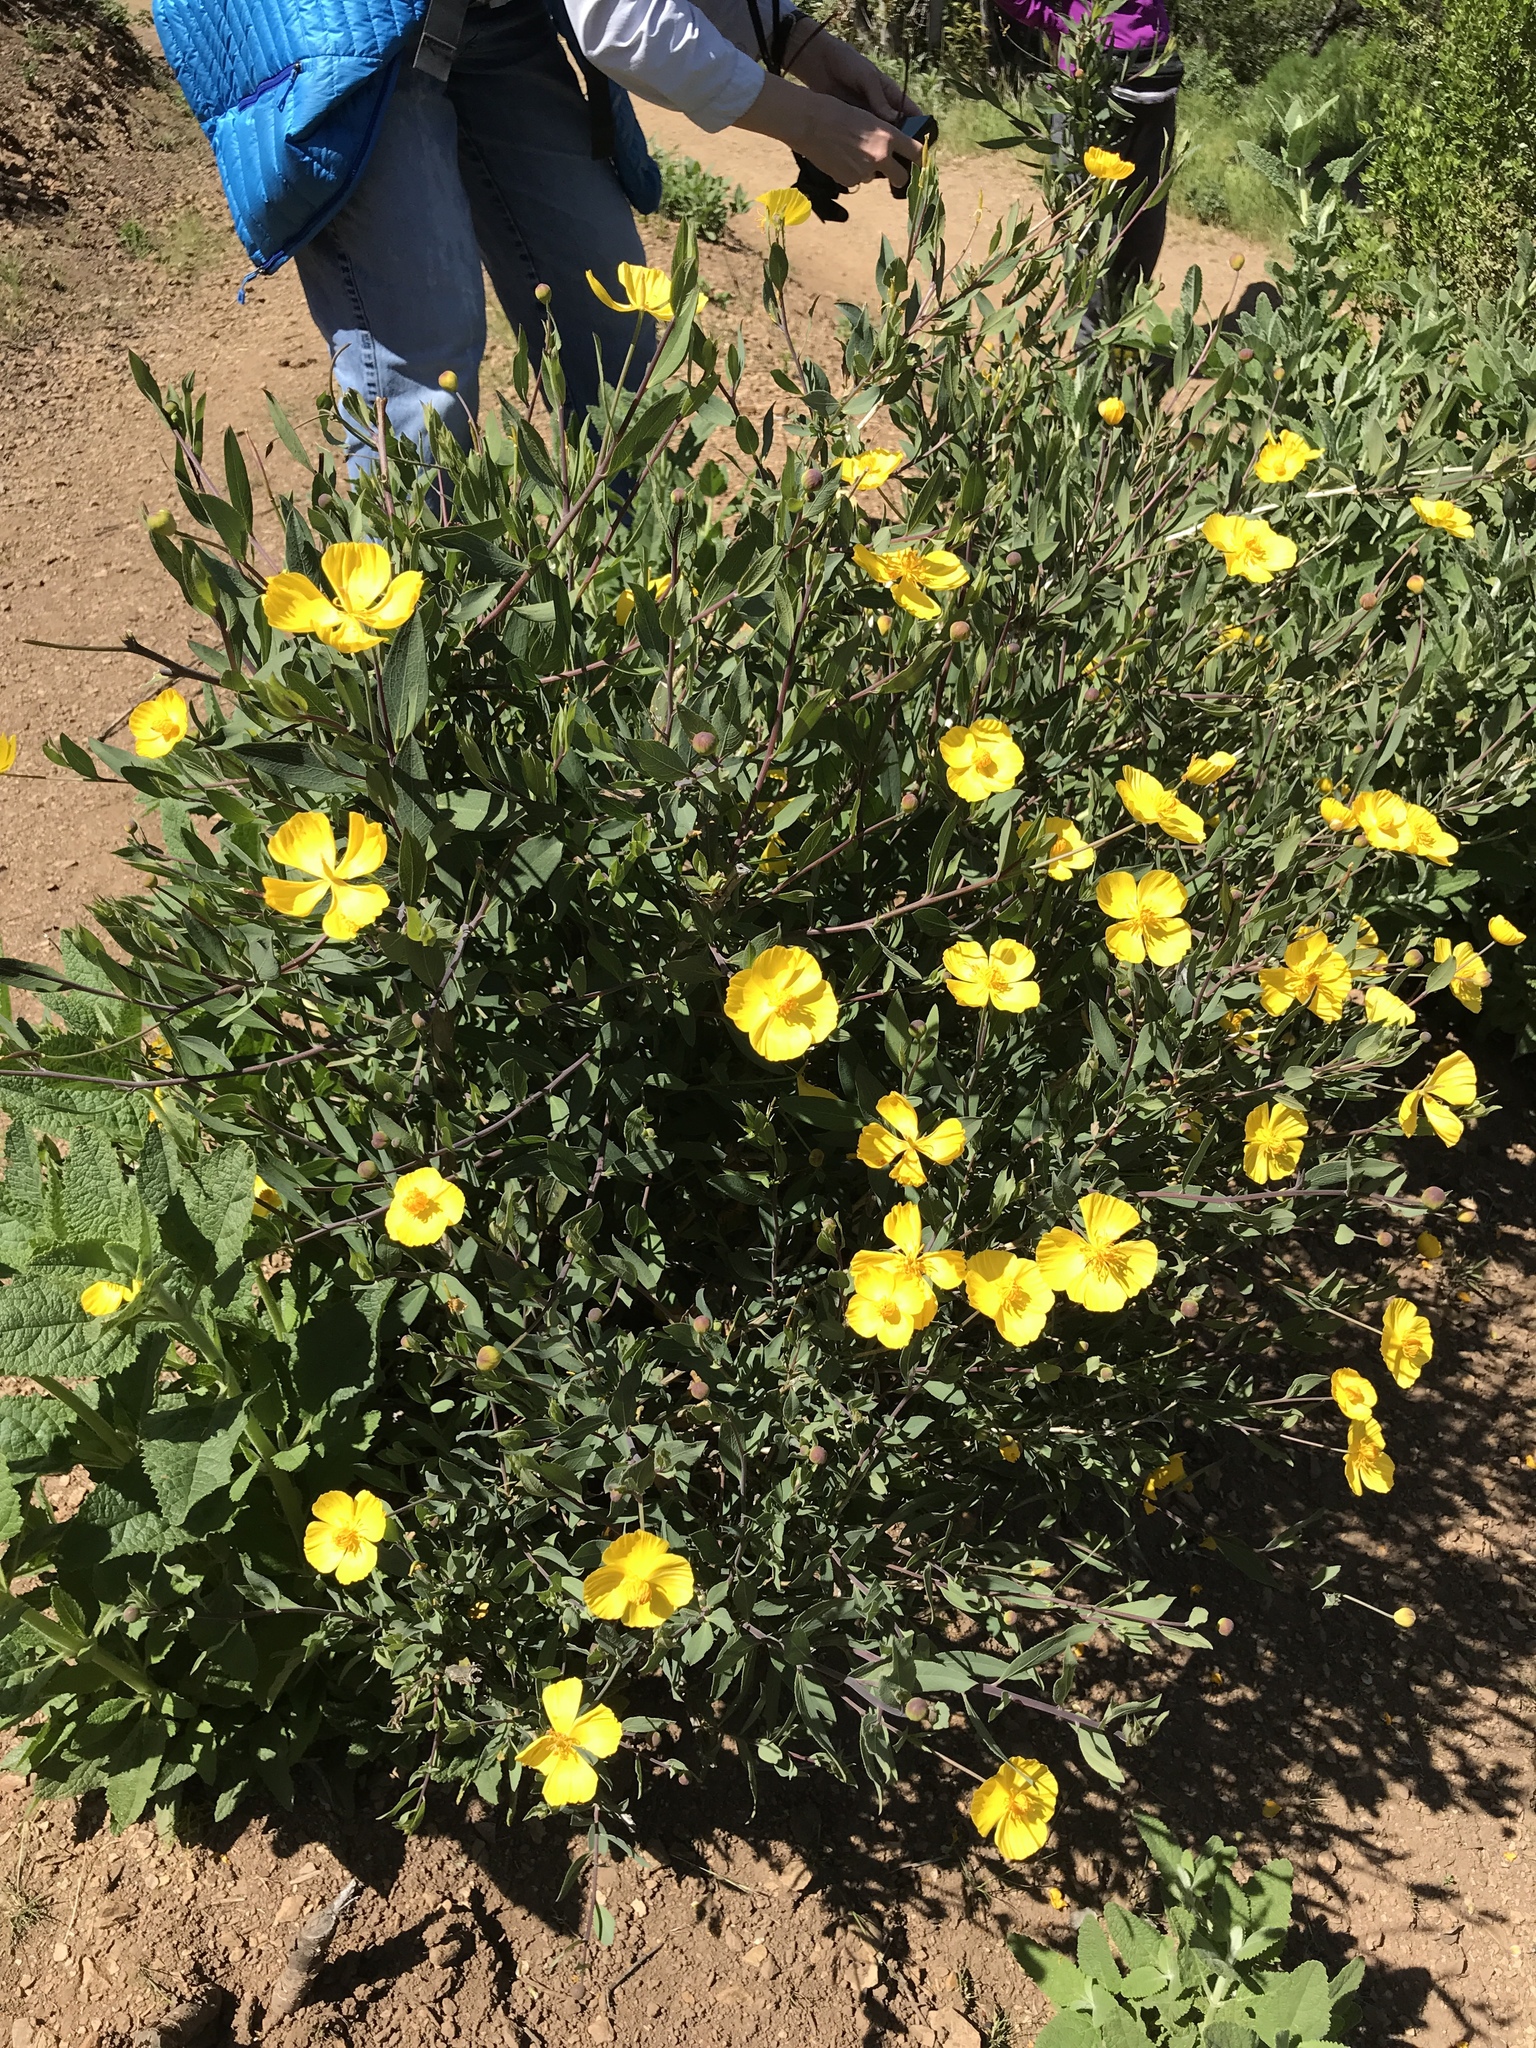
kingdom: Plantae
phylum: Tracheophyta
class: Magnoliopsida
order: Ranunculales
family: Papaveraceae
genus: Dendromecon
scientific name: Dendromecon rigida
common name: Tree poppy
